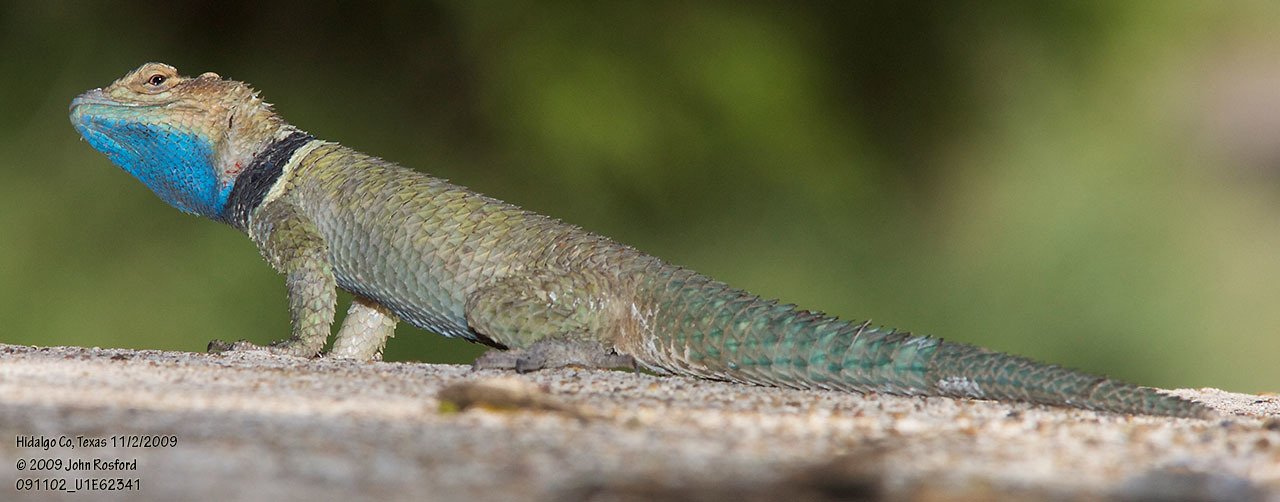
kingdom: Animalia
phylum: Chordata
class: Squamata
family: Phrynosomatidae
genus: Sceloporus
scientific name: Sceloporus cyanogenys
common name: Blue spiny lizard
